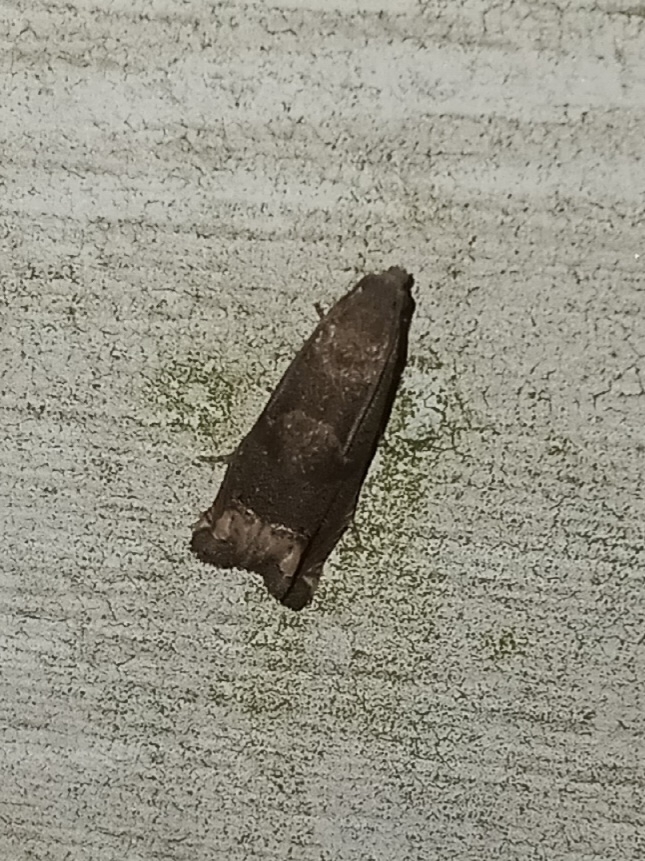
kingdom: Animalia
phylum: Arthropoda
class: Insecta
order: Lepidoptera
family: Tortricidae
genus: Epiblema
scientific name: Epiblema strenuana
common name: Ragweed borer moth
